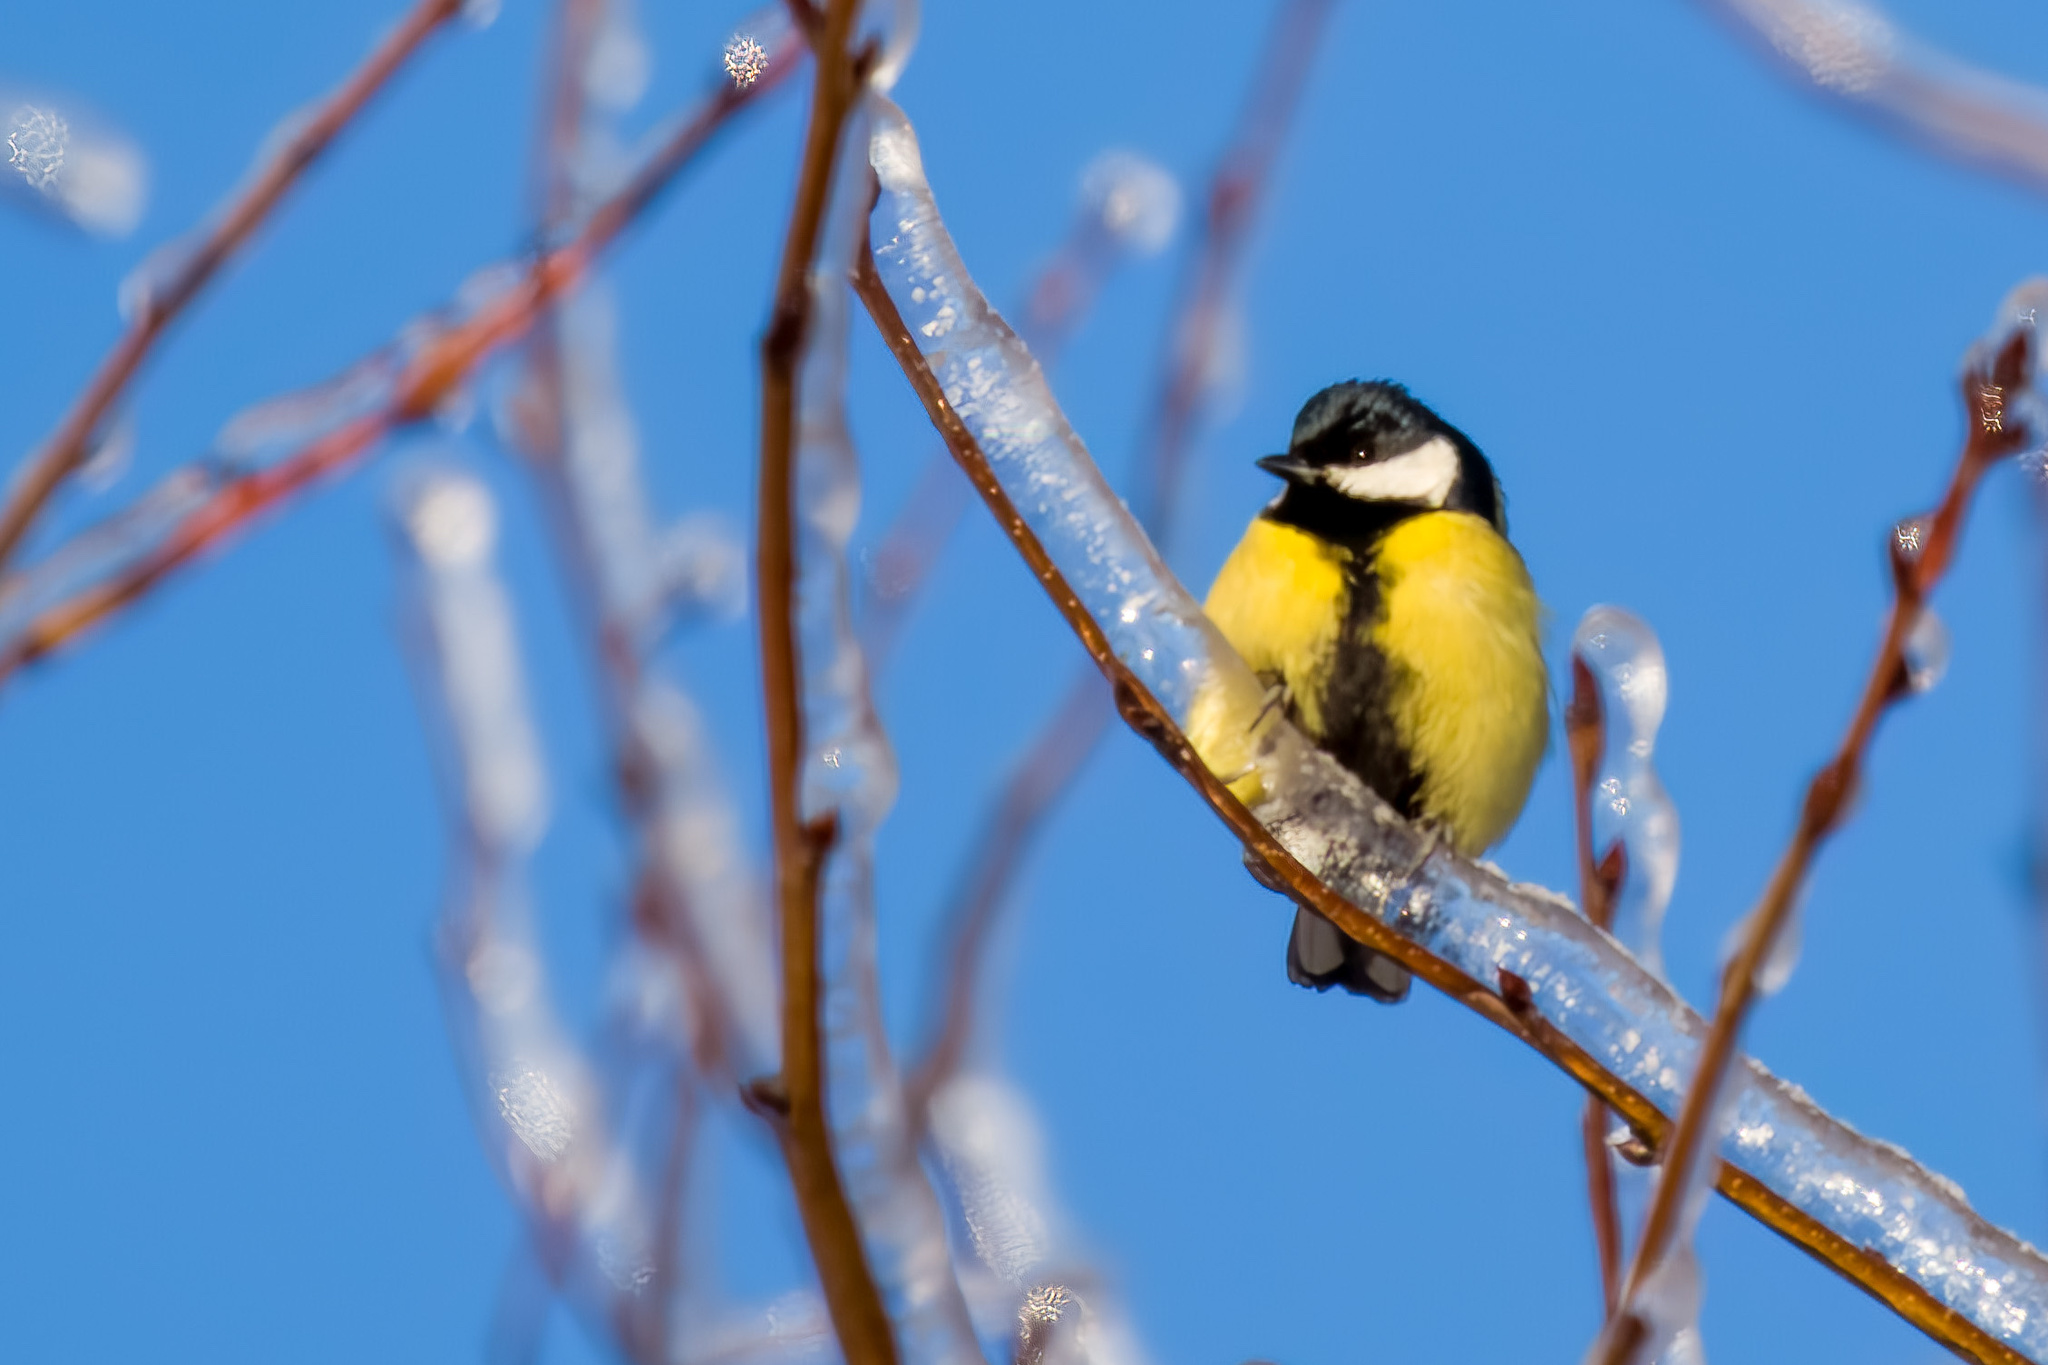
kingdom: Animalia
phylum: Chordata
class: Aves
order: Passeriformes
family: Paridae
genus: Parus
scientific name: Parus major
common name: Great tit
